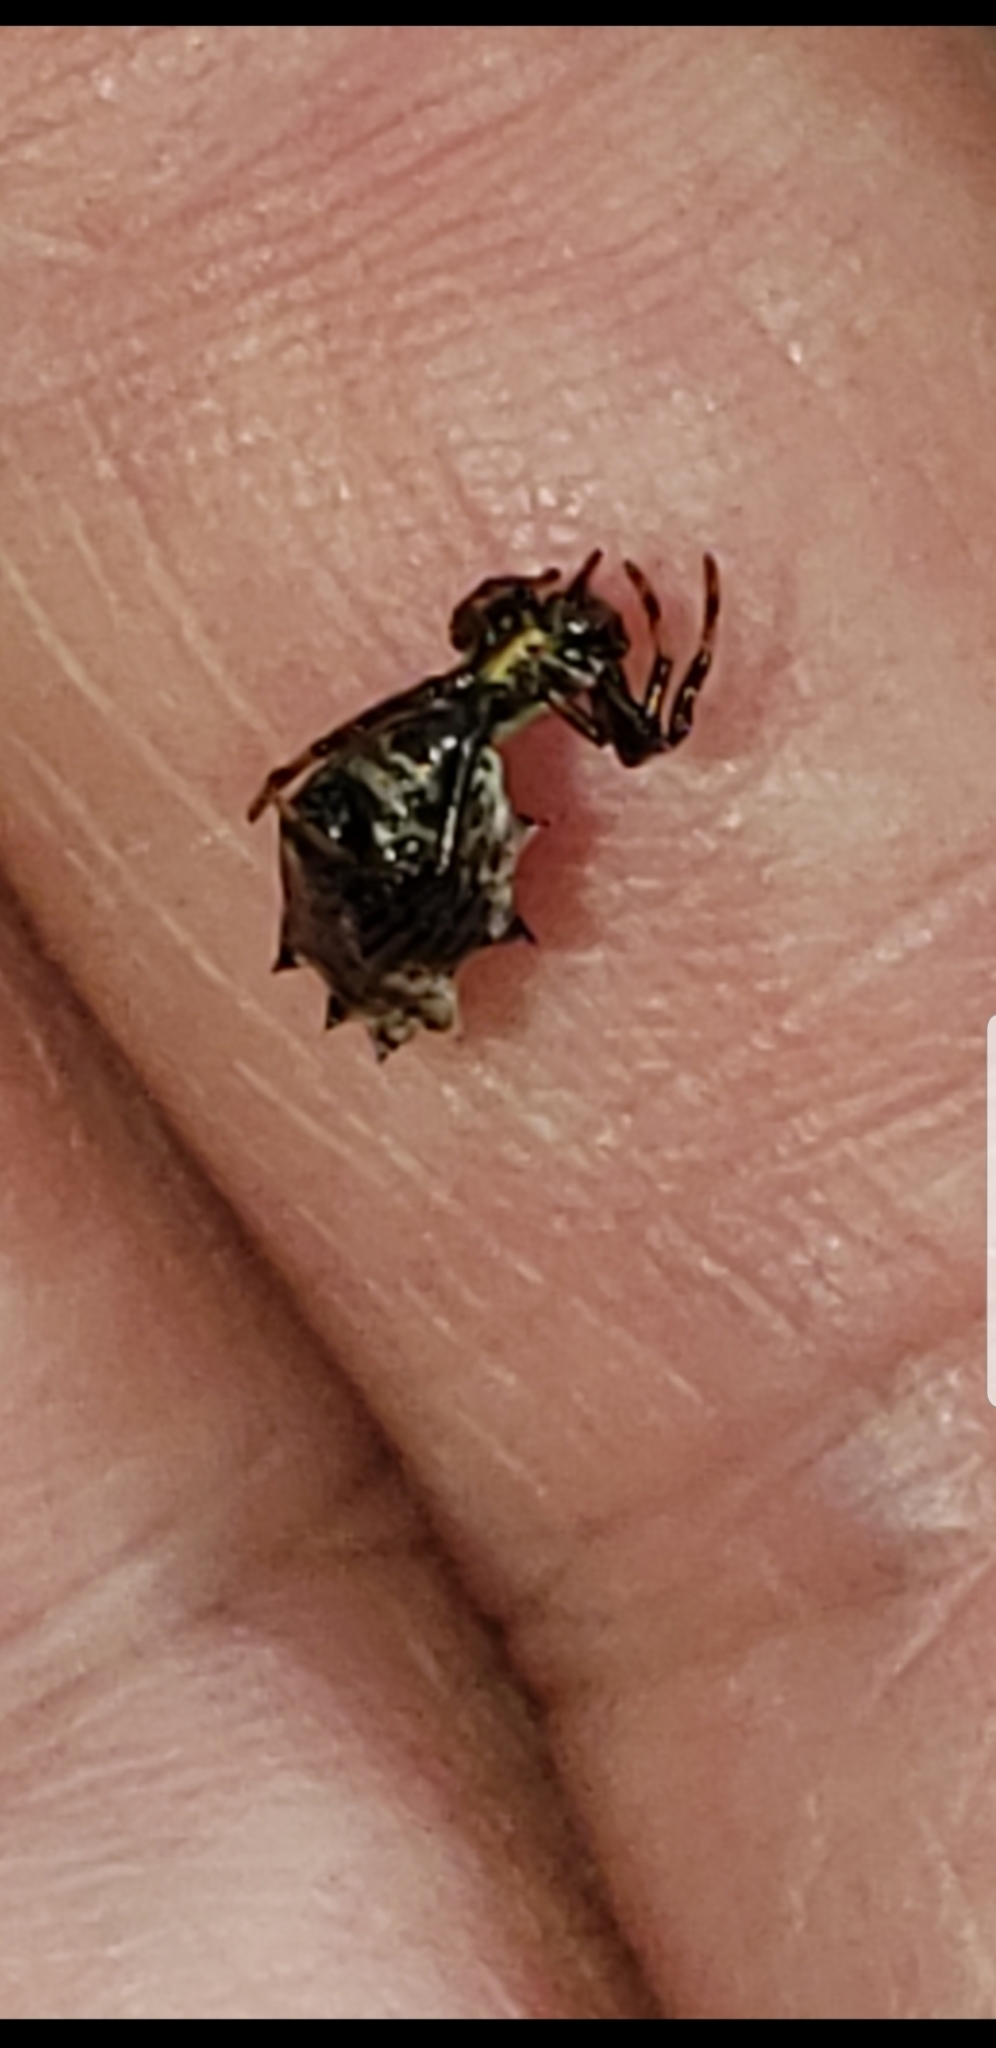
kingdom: Animalia
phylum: Arthropoda
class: Arachnida
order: Araneae
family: Araneidae
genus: Micrathena
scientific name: Micrathena gracilis
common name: Orb weavers
